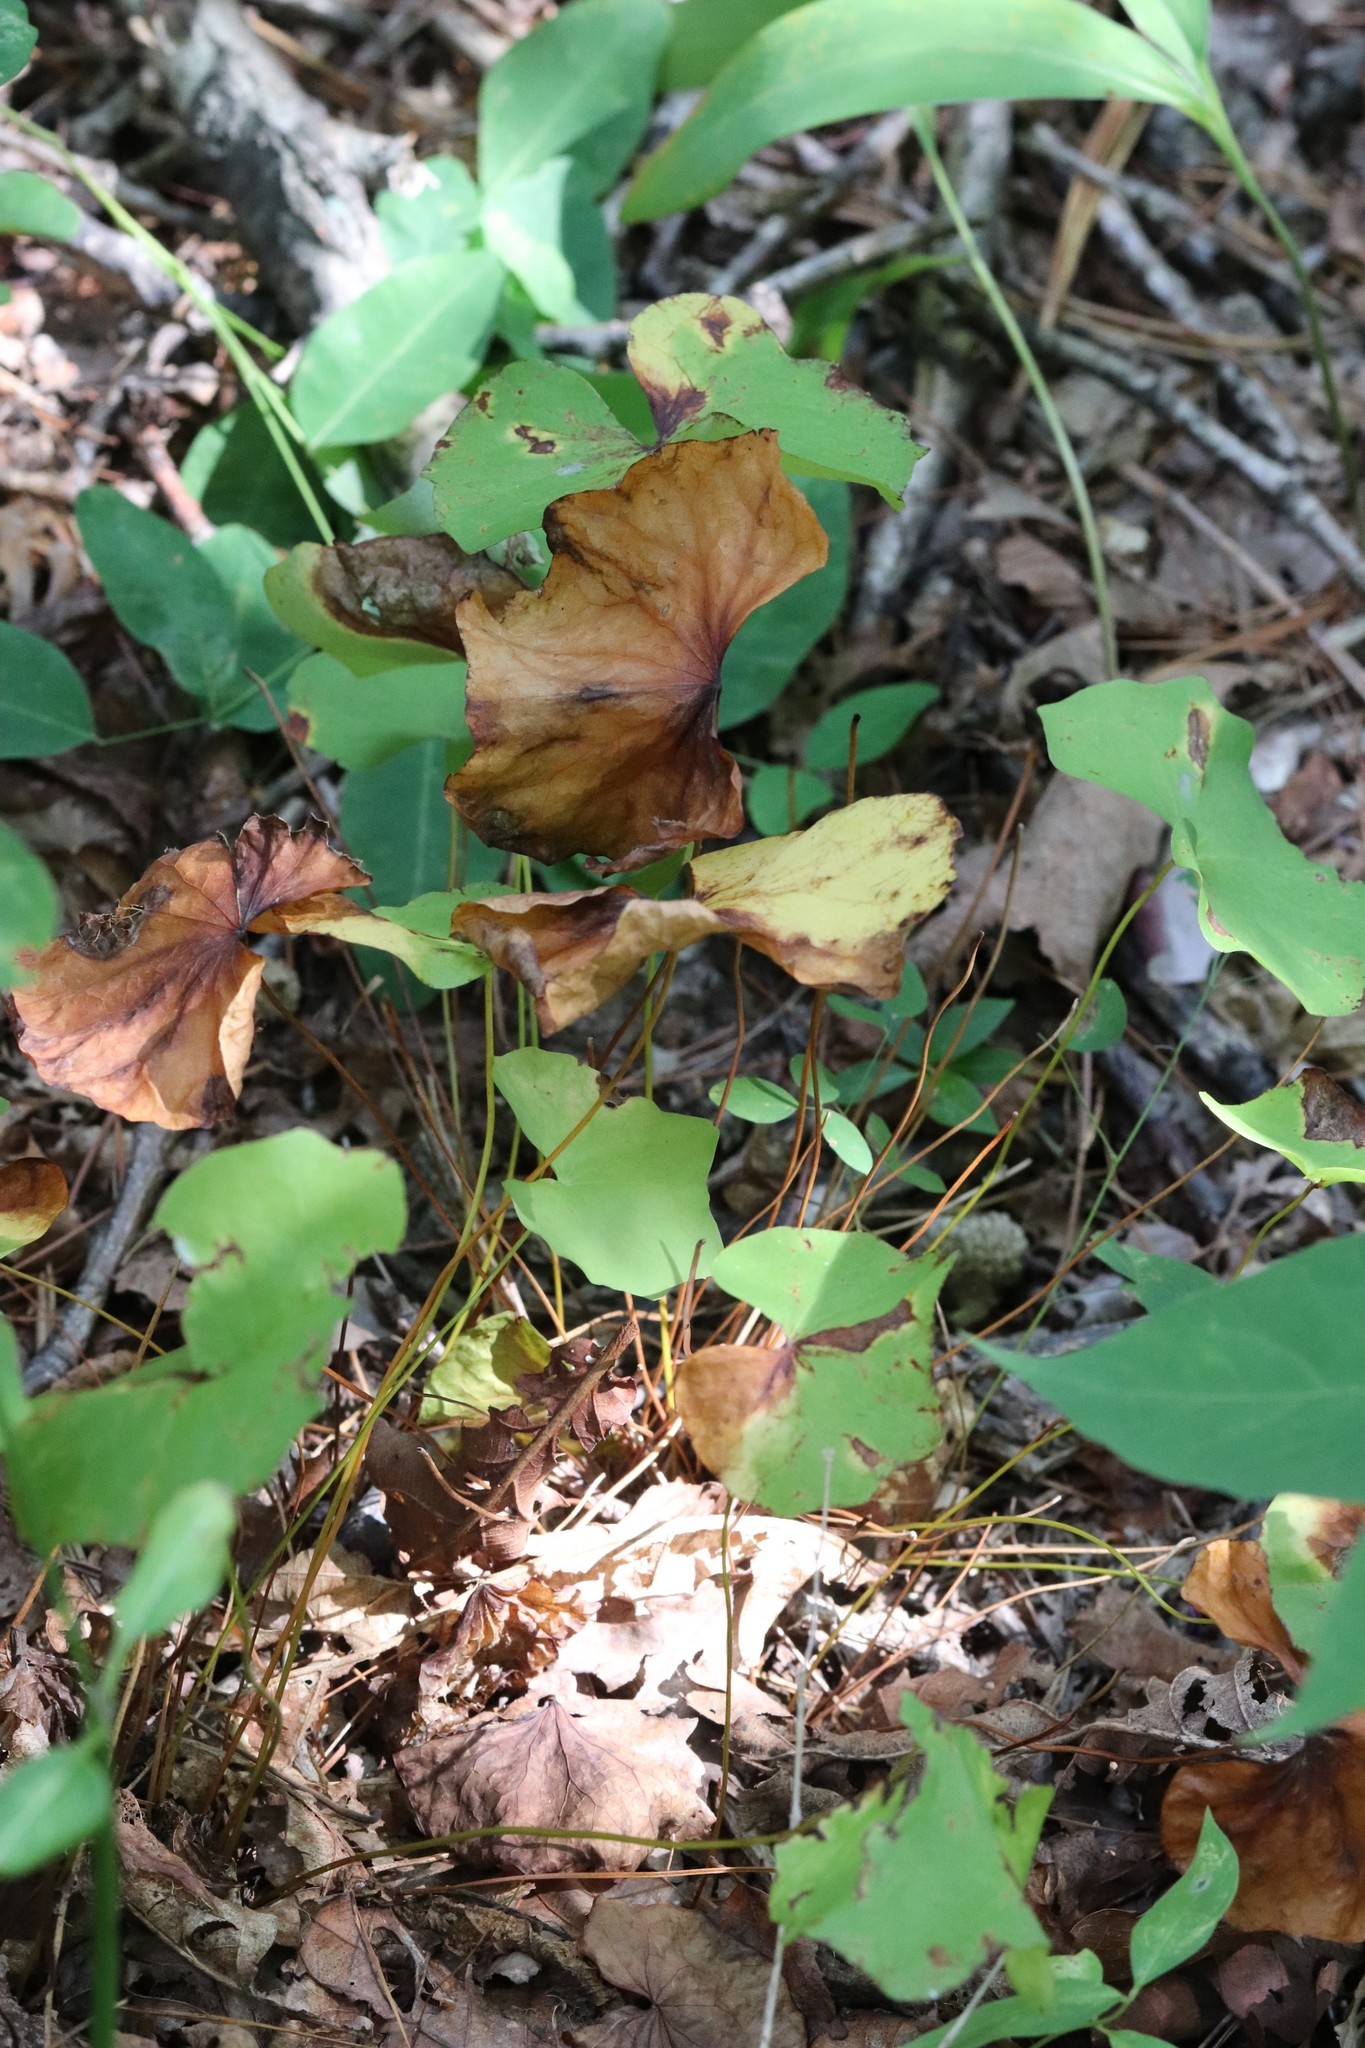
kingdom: Plantae
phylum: Tracheophyta
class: Magnoliopsida
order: Ranunculales
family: Berberidaceae
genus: Plagiorhegma
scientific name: Plagiorhegma dubium
